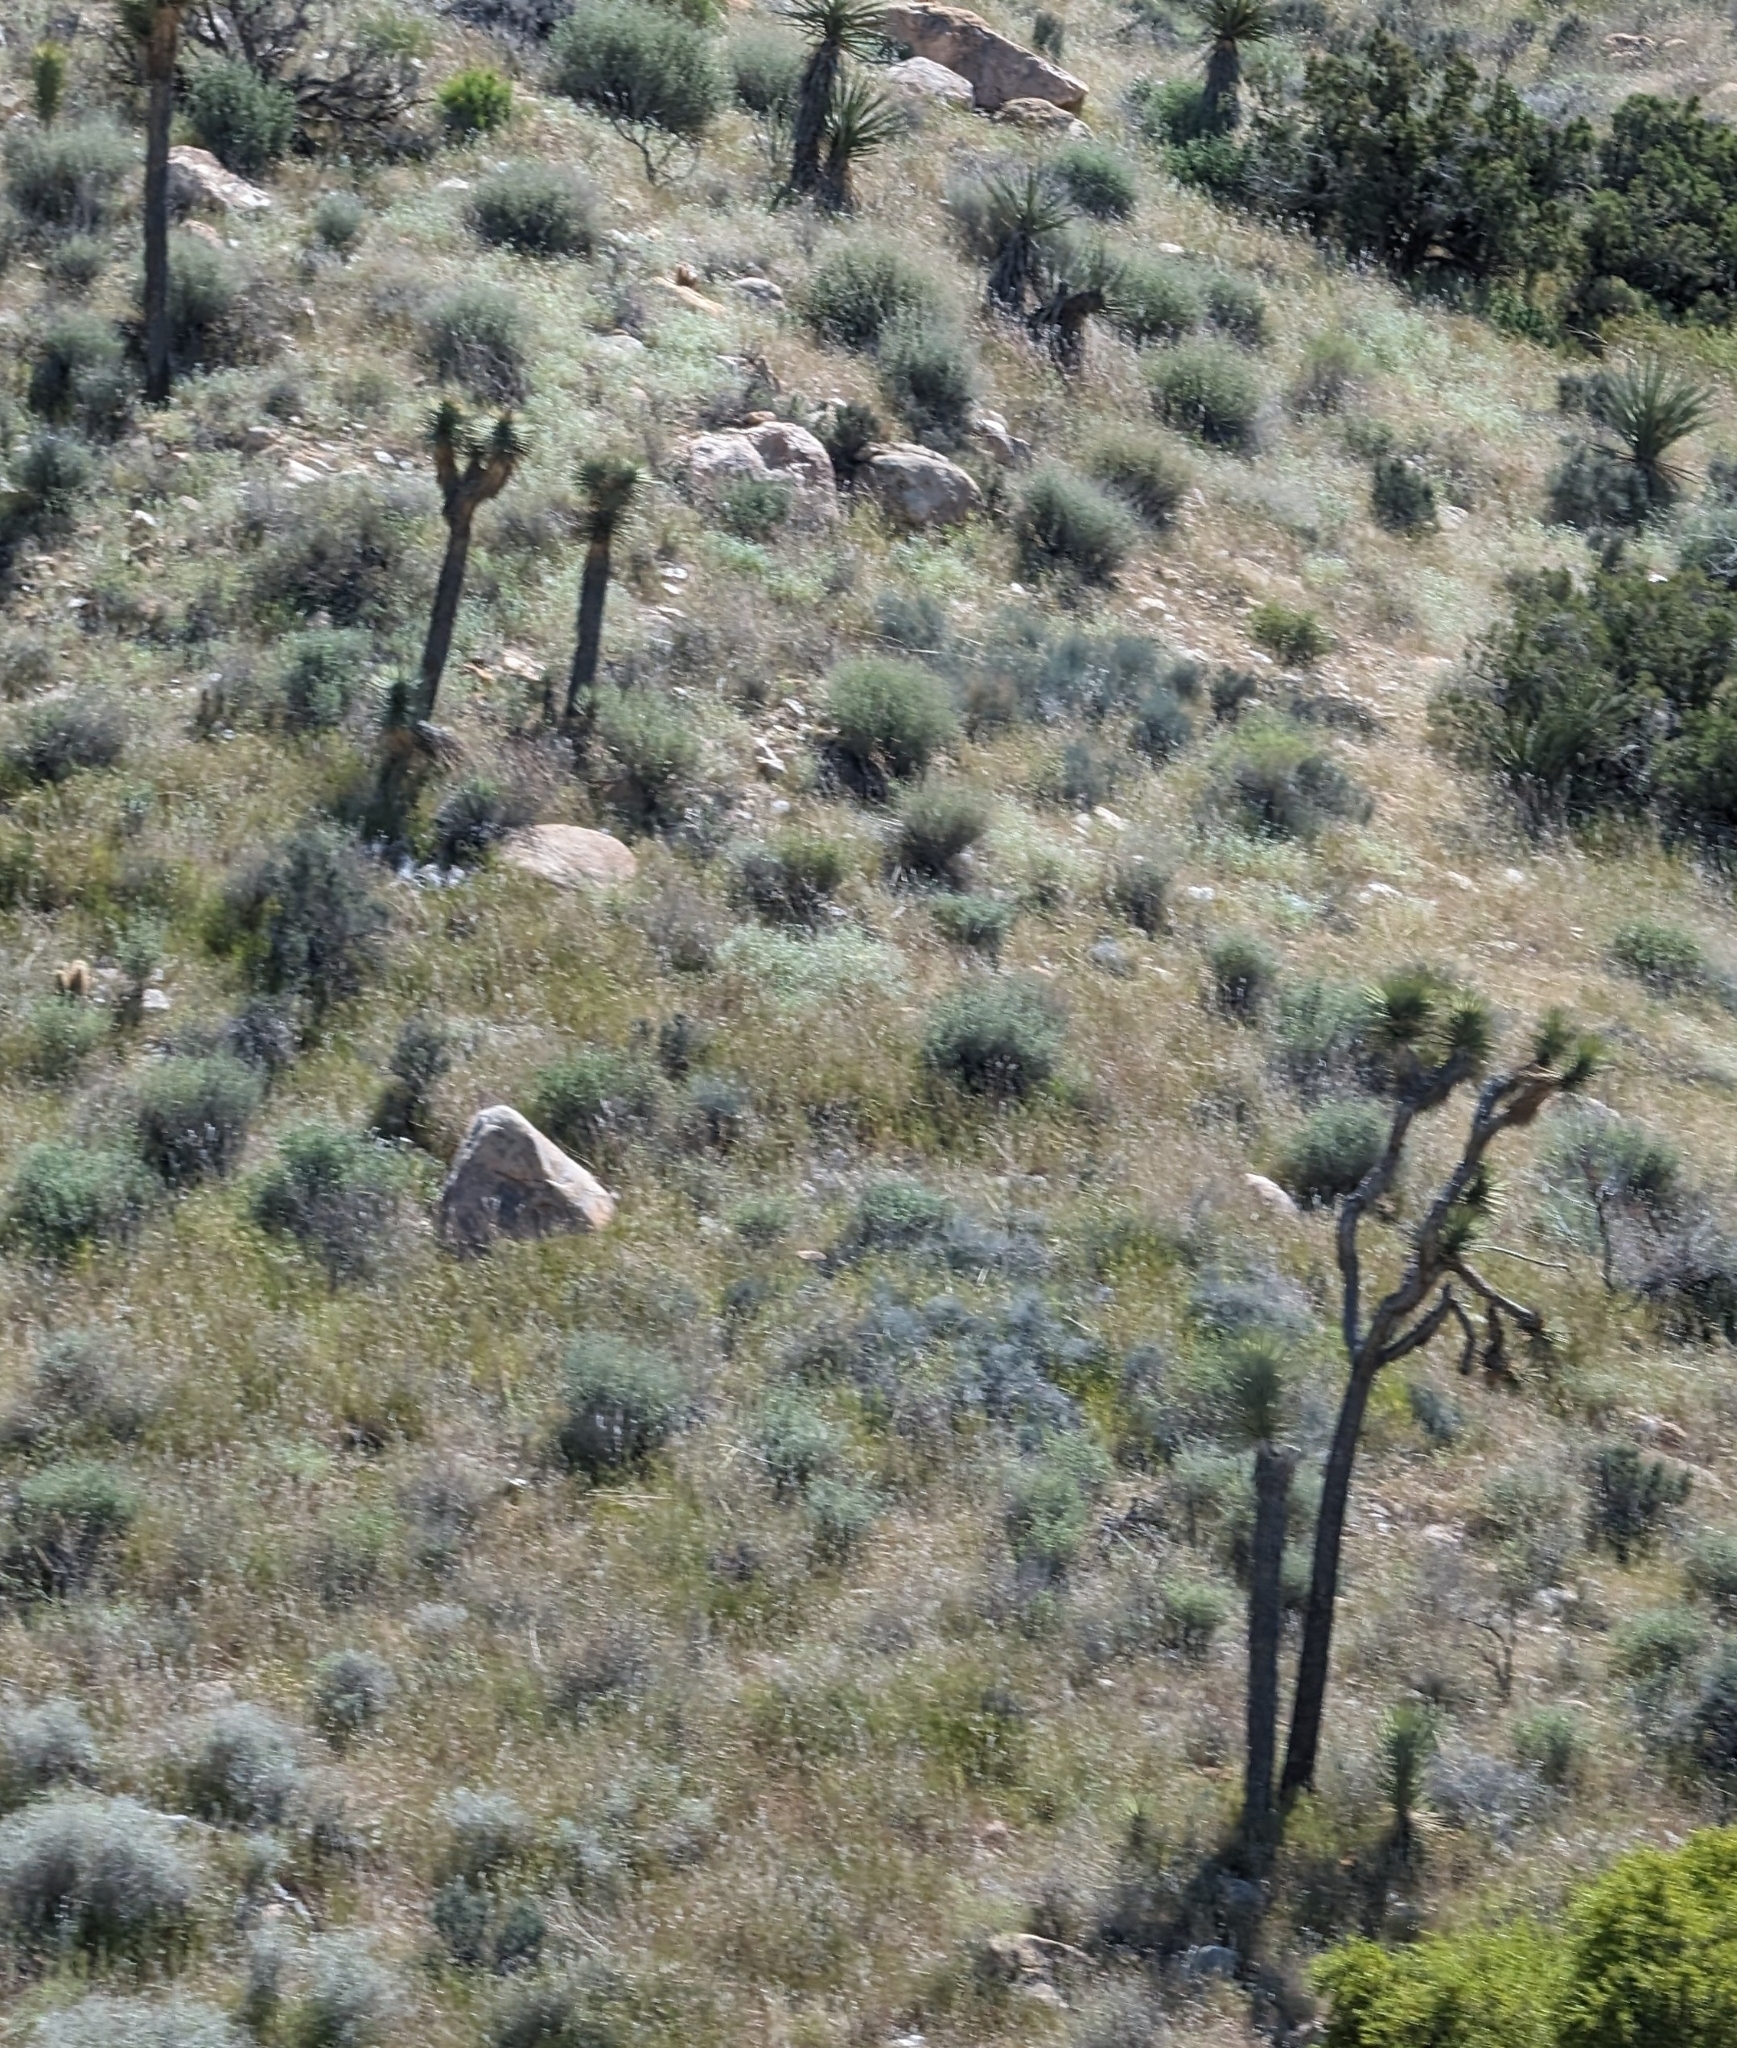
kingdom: Plantae
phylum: Tracheophyta
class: Liliopsida
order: Asparagales
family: Asparagaceae
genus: Yucca
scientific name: Yucca brevifolia
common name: Joshua tree
